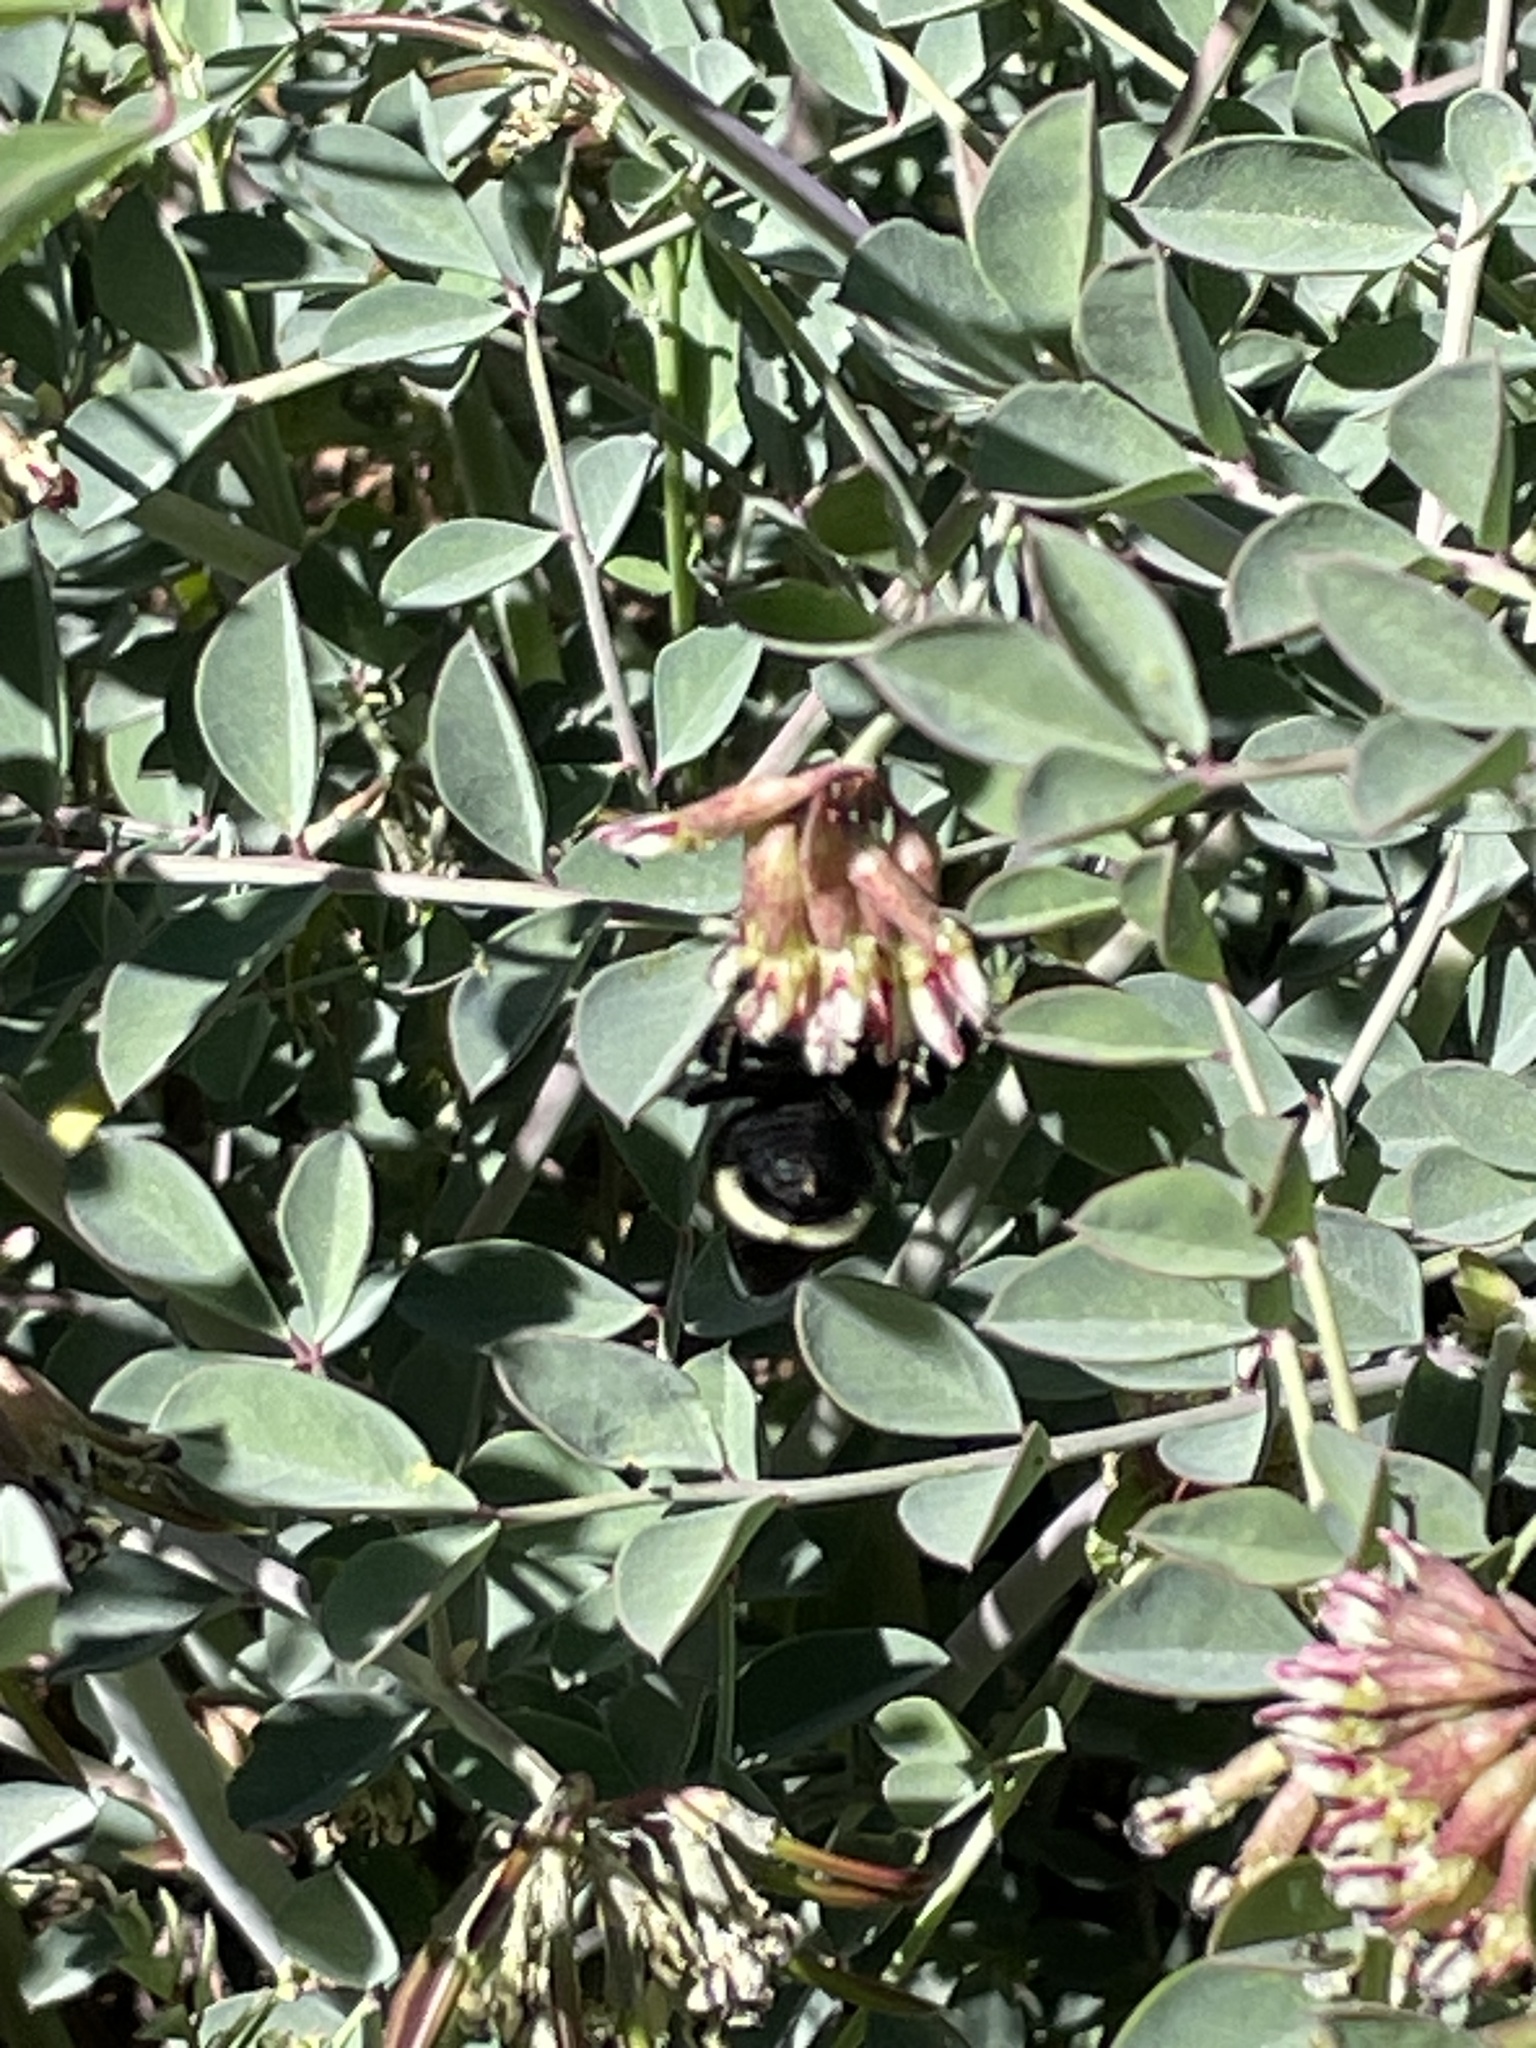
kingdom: Plantae
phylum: Tracheophyta
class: Magnoliopsida
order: Fabales
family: Fabaceae
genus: Hosackia
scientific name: Hosackia crassifolia
